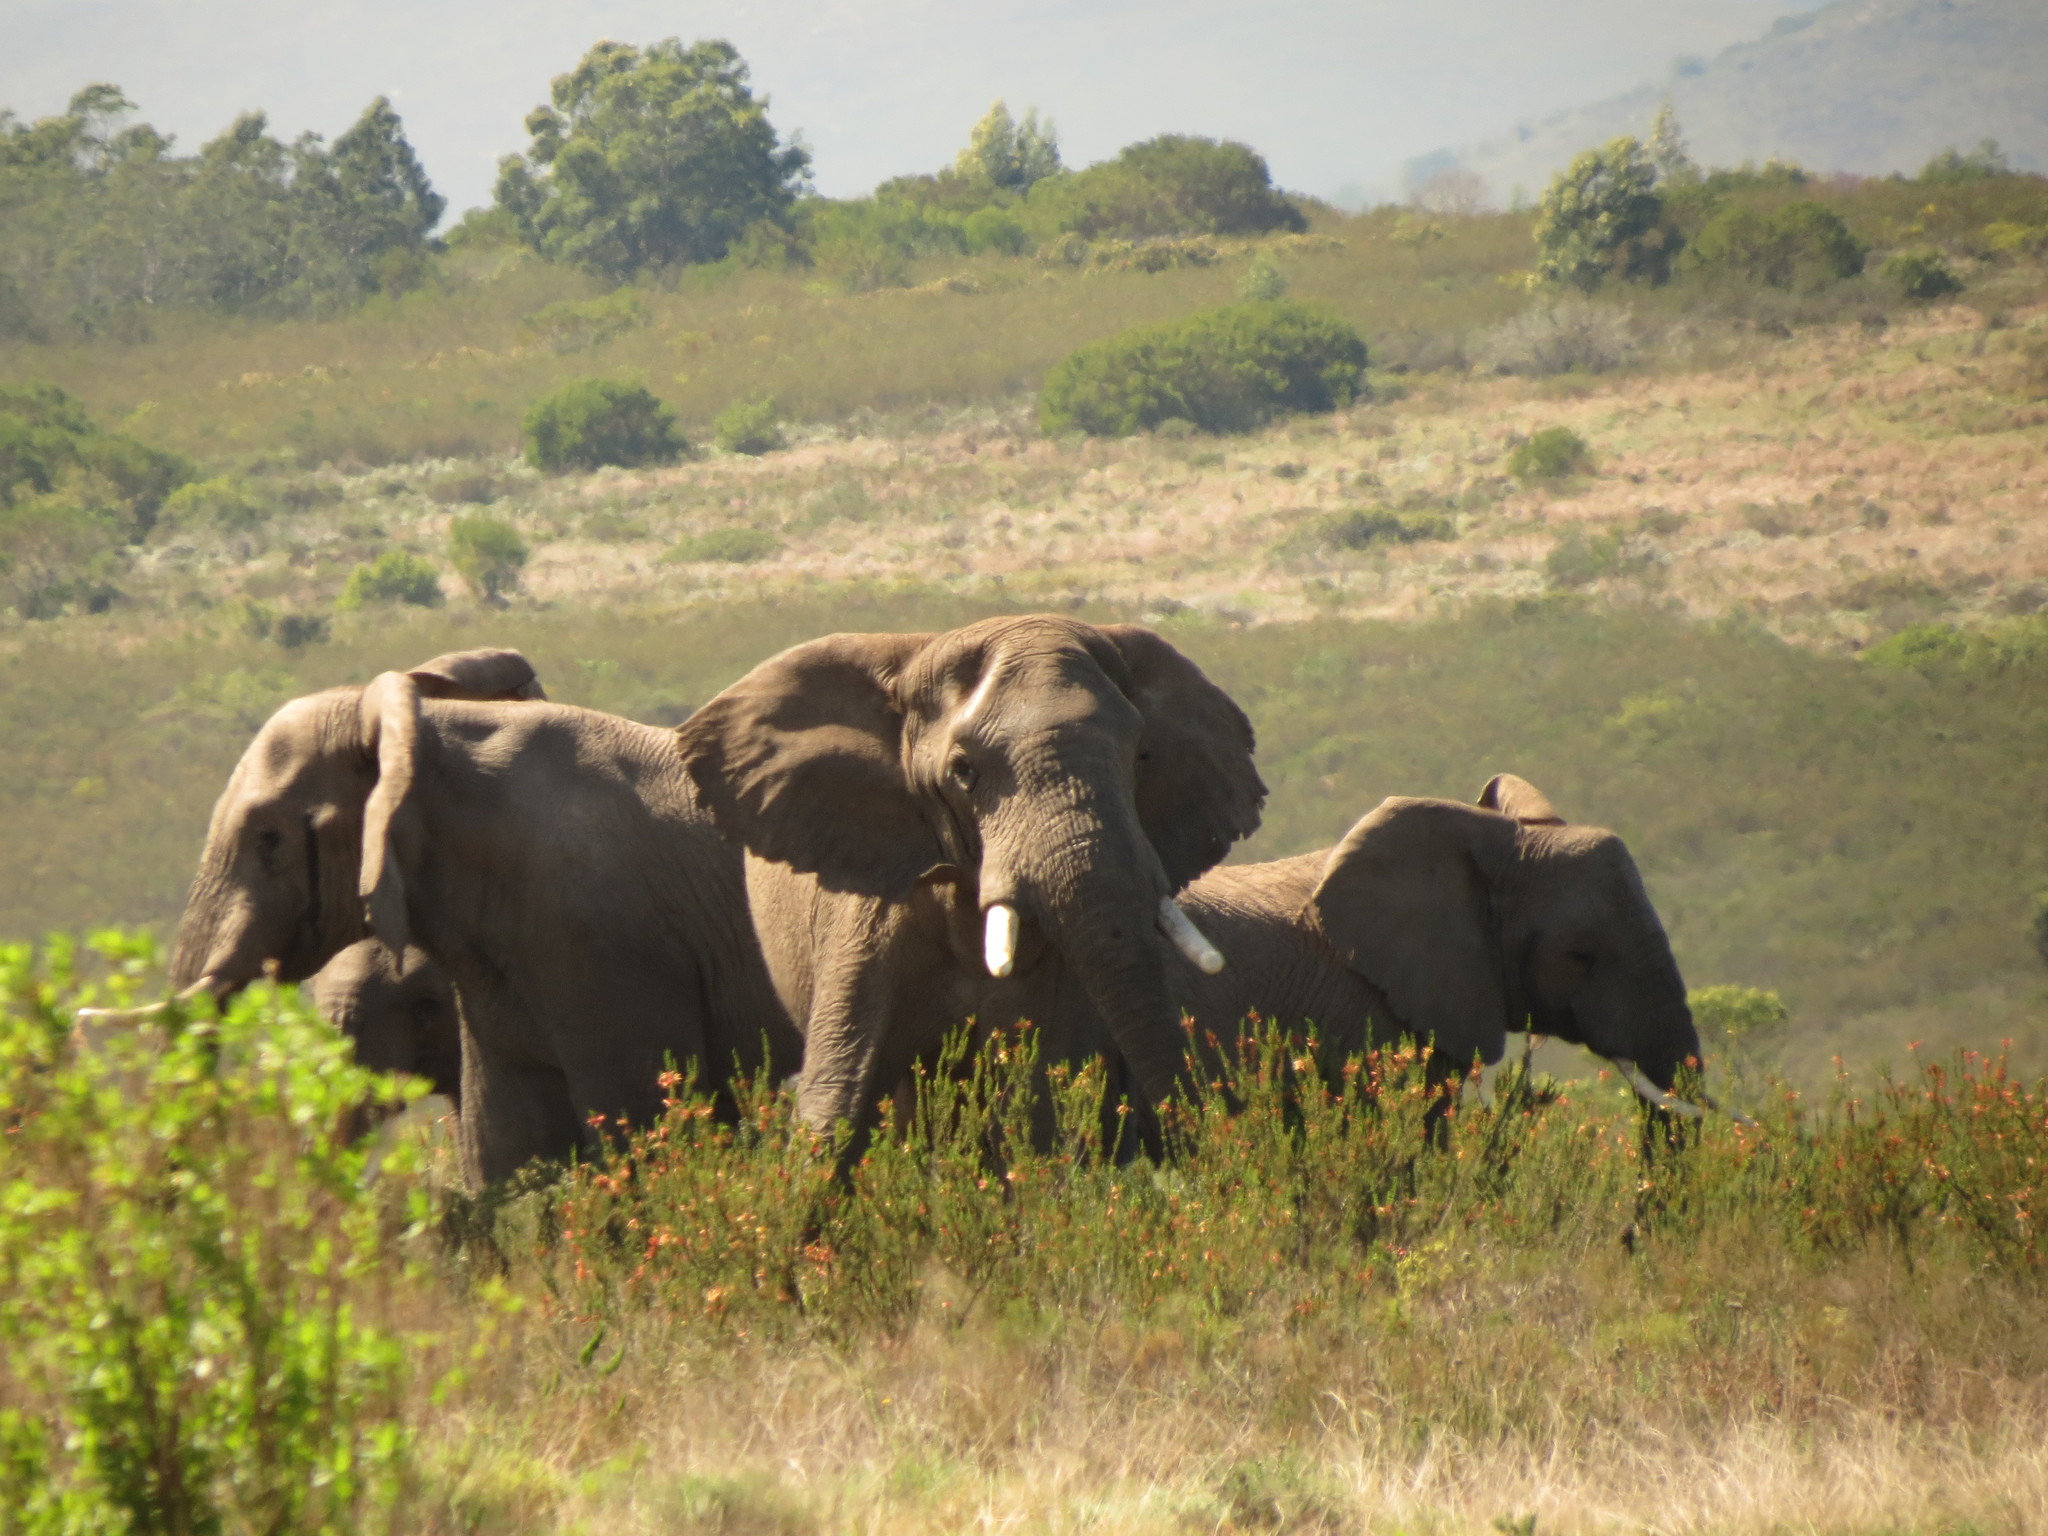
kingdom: Animalia
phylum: Chordata
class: Mammalia
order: Proboscidea
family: Elephantidae
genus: Loxodonta
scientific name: Loxodonta africana
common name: African elephant
